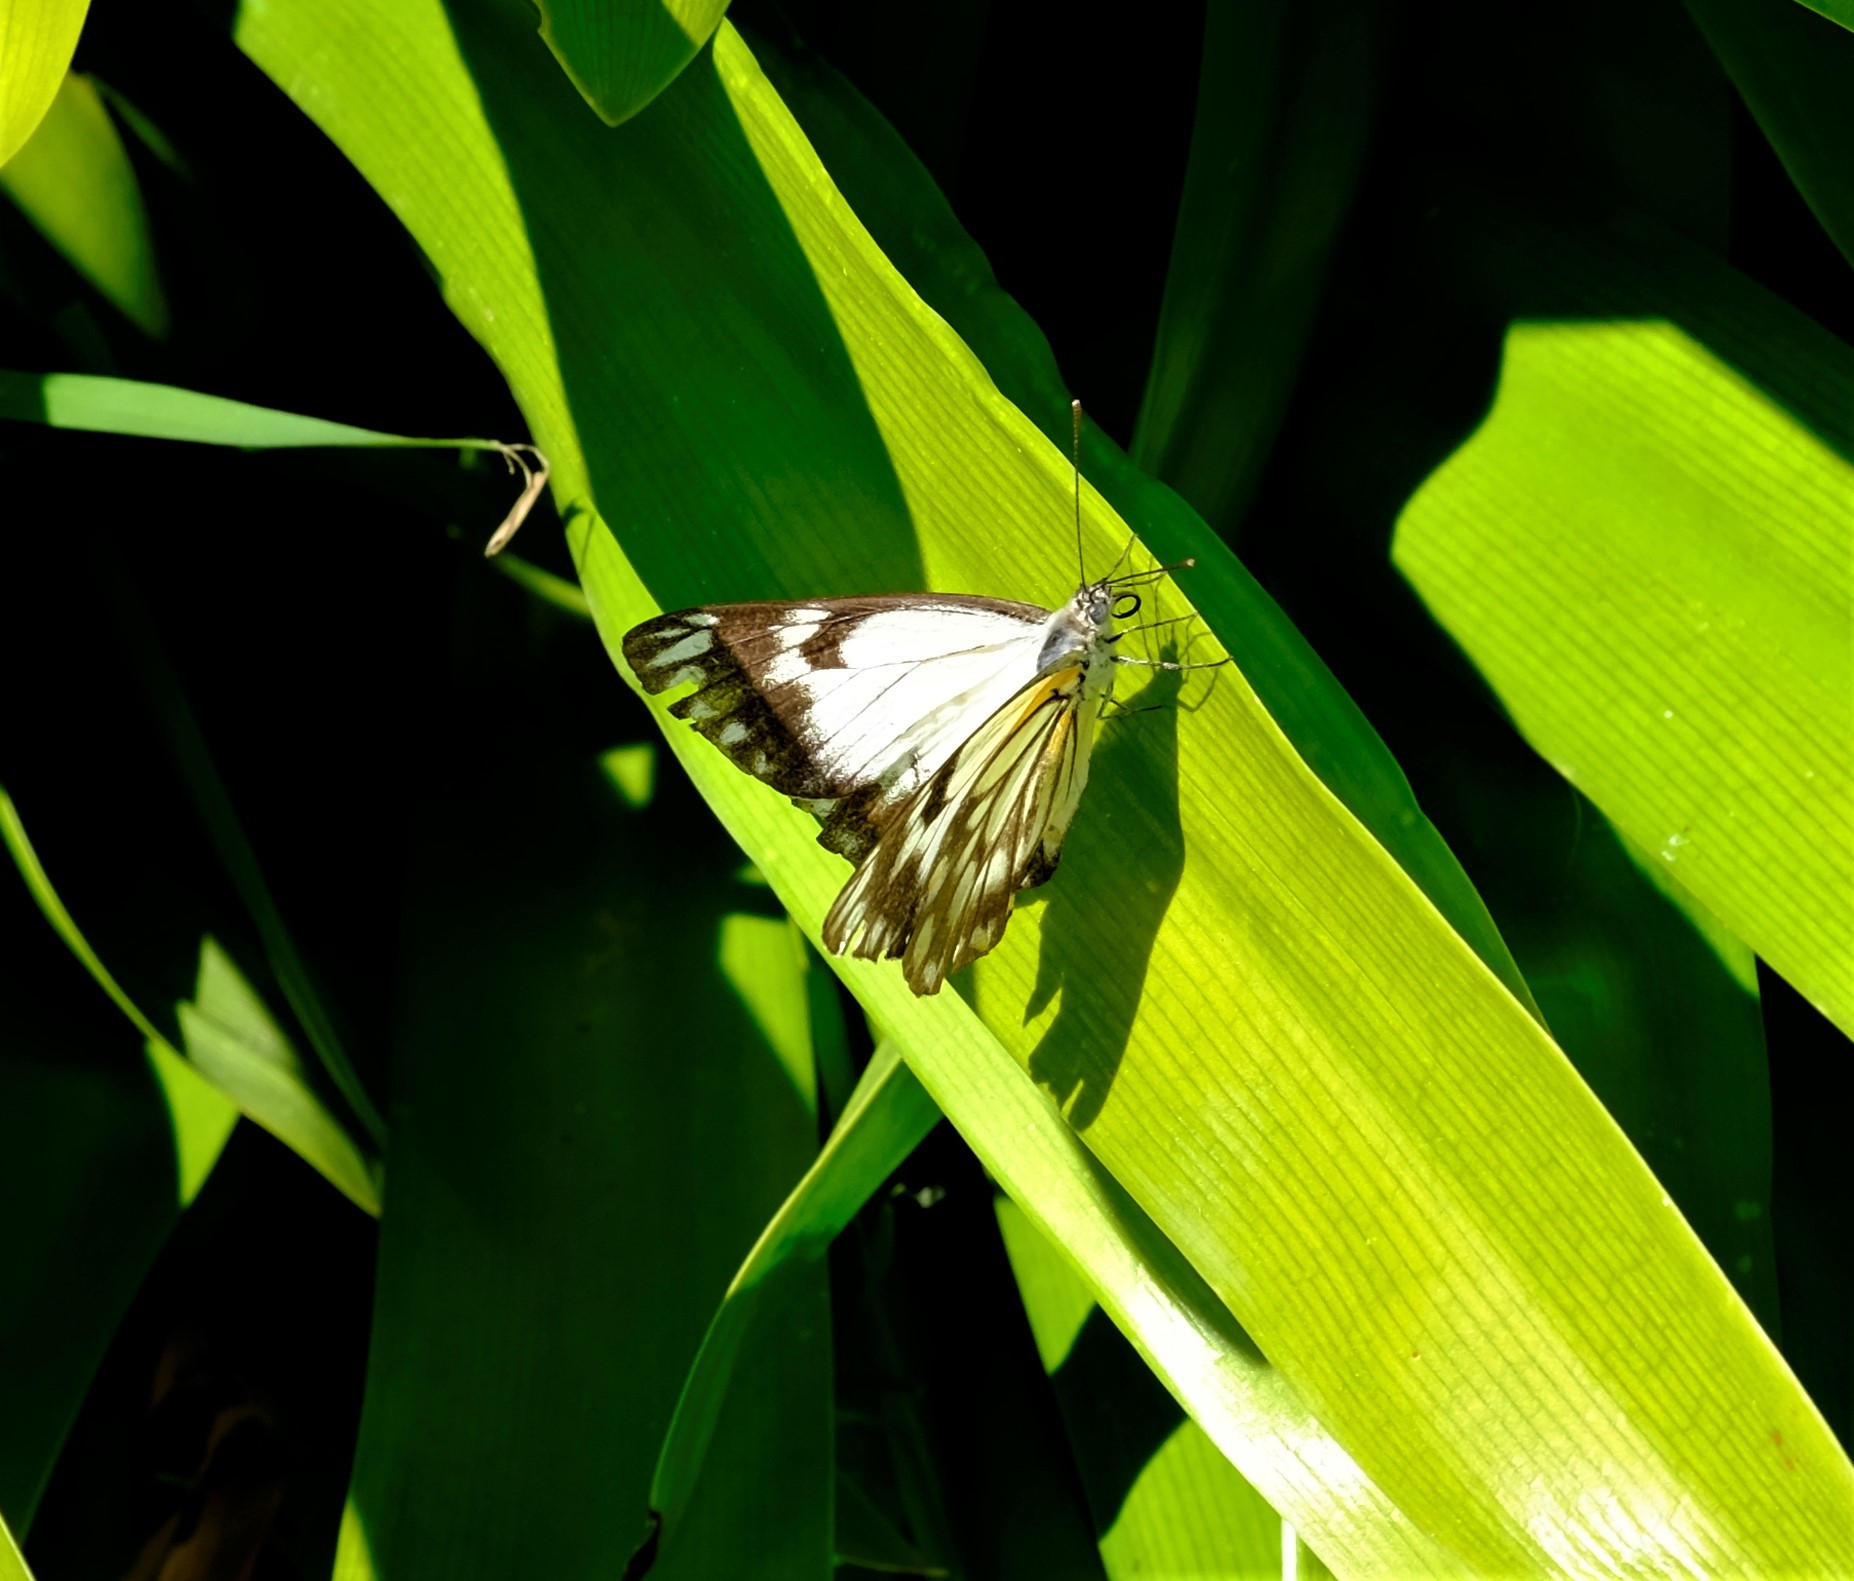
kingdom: Animalia
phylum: Arthropoda
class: Insecta
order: Lepidoptera
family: Pieridae
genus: Belenois
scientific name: Belenois java
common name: Caper white
